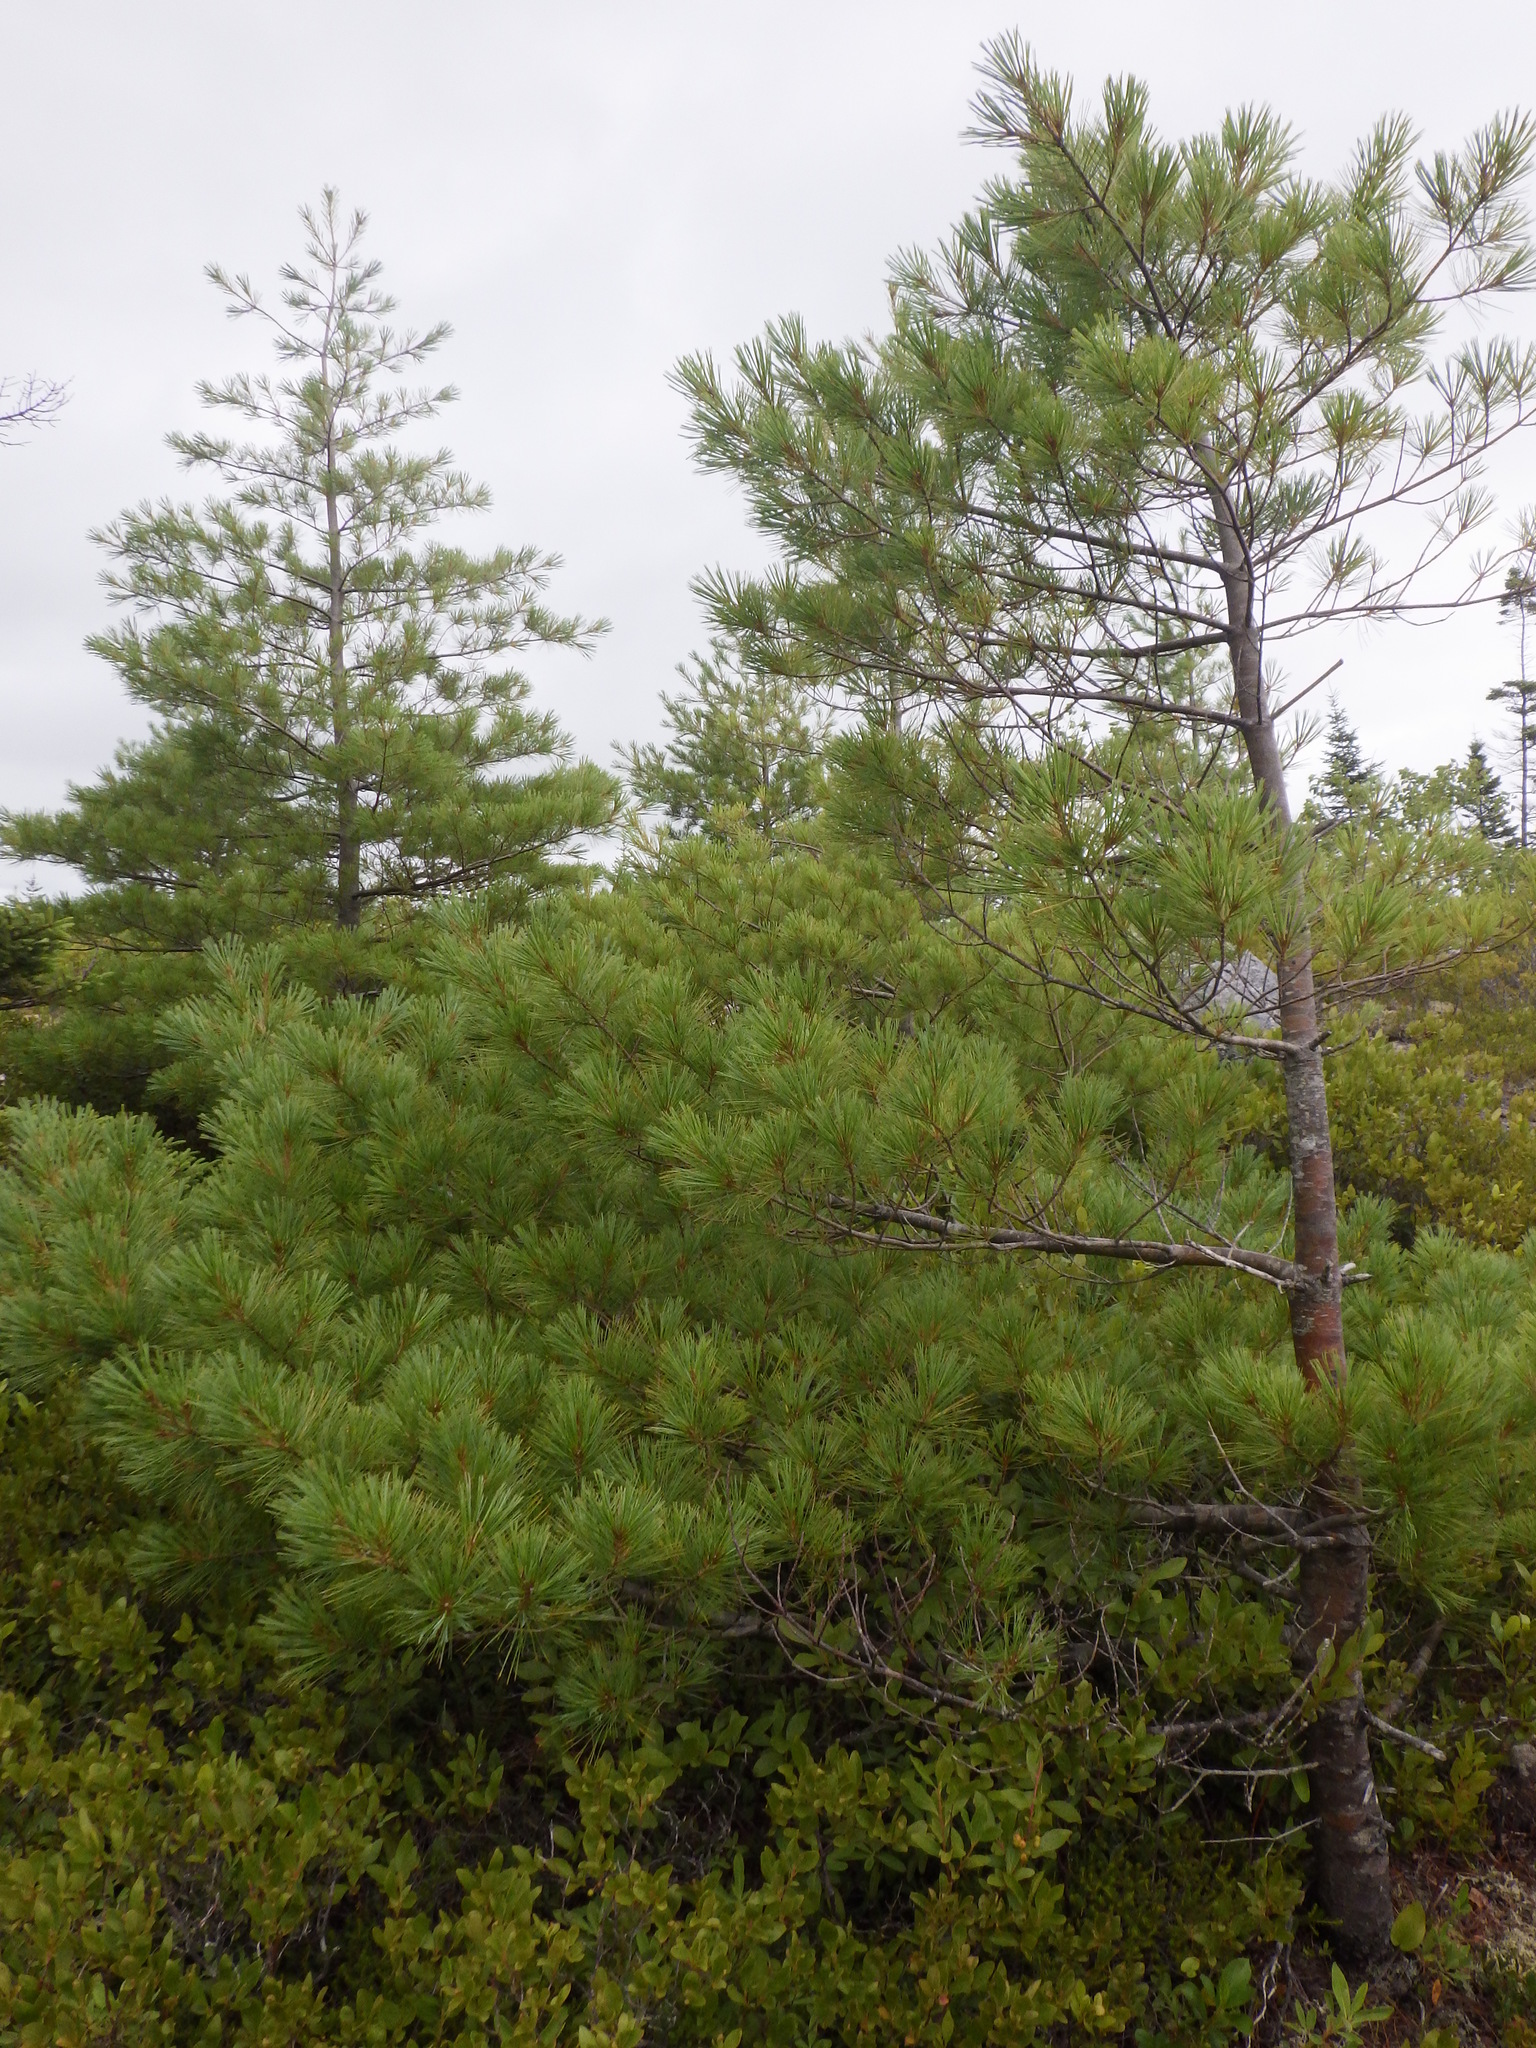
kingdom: Plantae
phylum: Tracheophyta
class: Pinopsida
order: Pinales
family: Pinaceae
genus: Pinus
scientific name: Pinus strobus
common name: Weymouth pine
